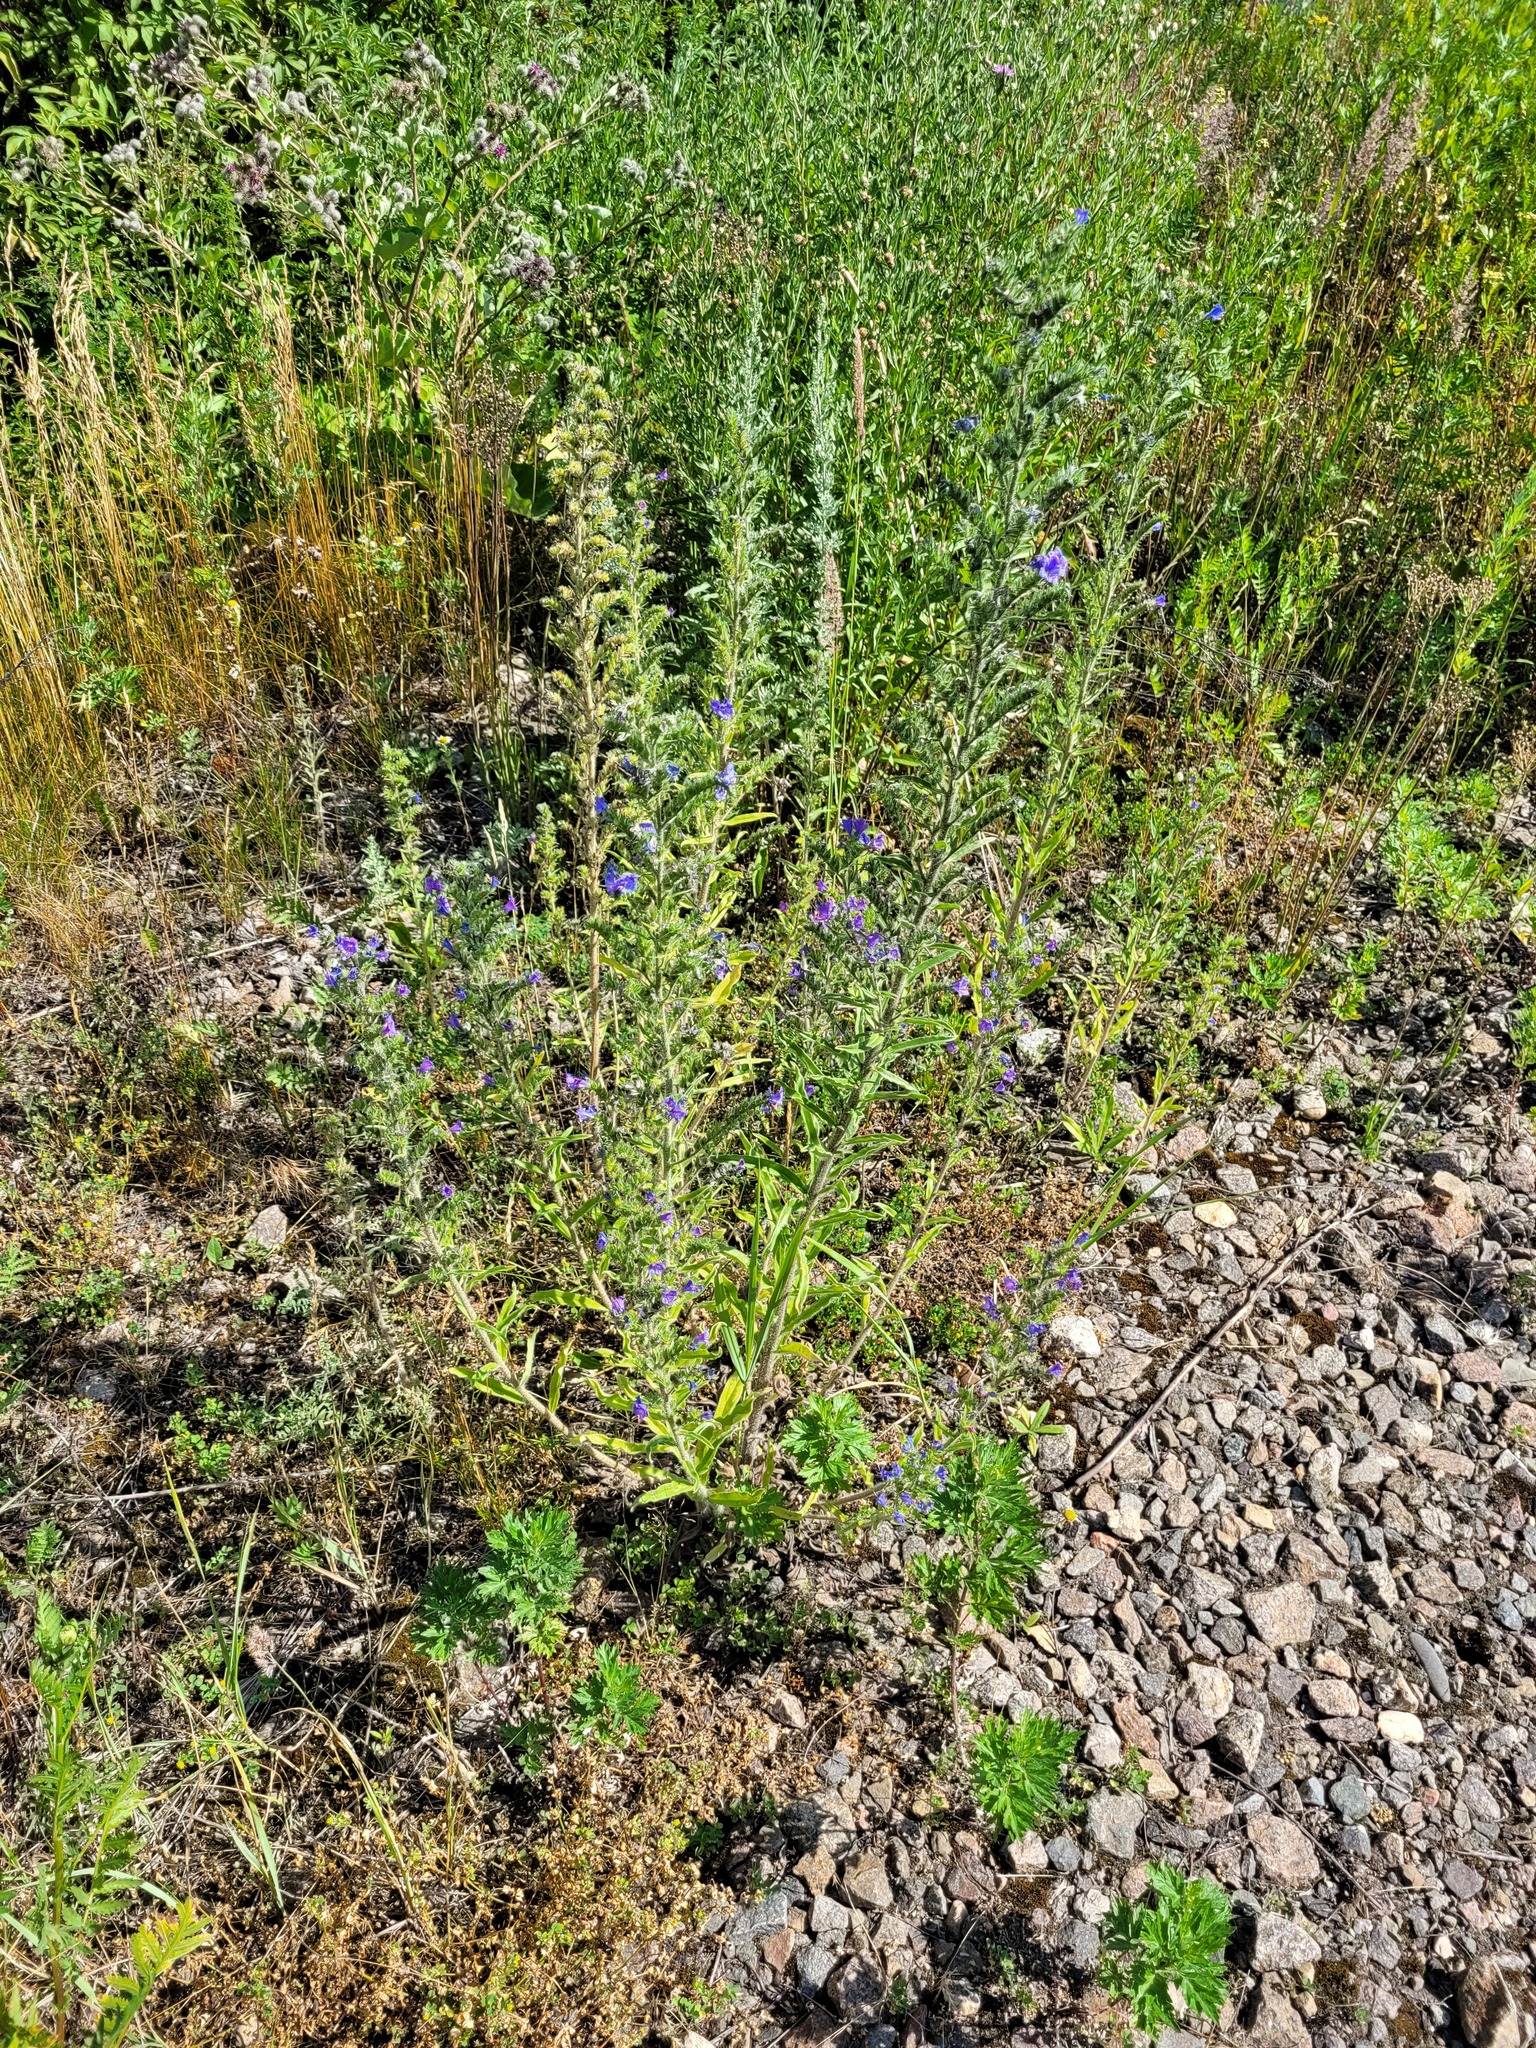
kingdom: Plantae
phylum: Tracheophyta
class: Magnoliopsida
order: Boraginales
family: Boraginaceae
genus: Echium
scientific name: Echium vulgare
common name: Common viper's bugloss
